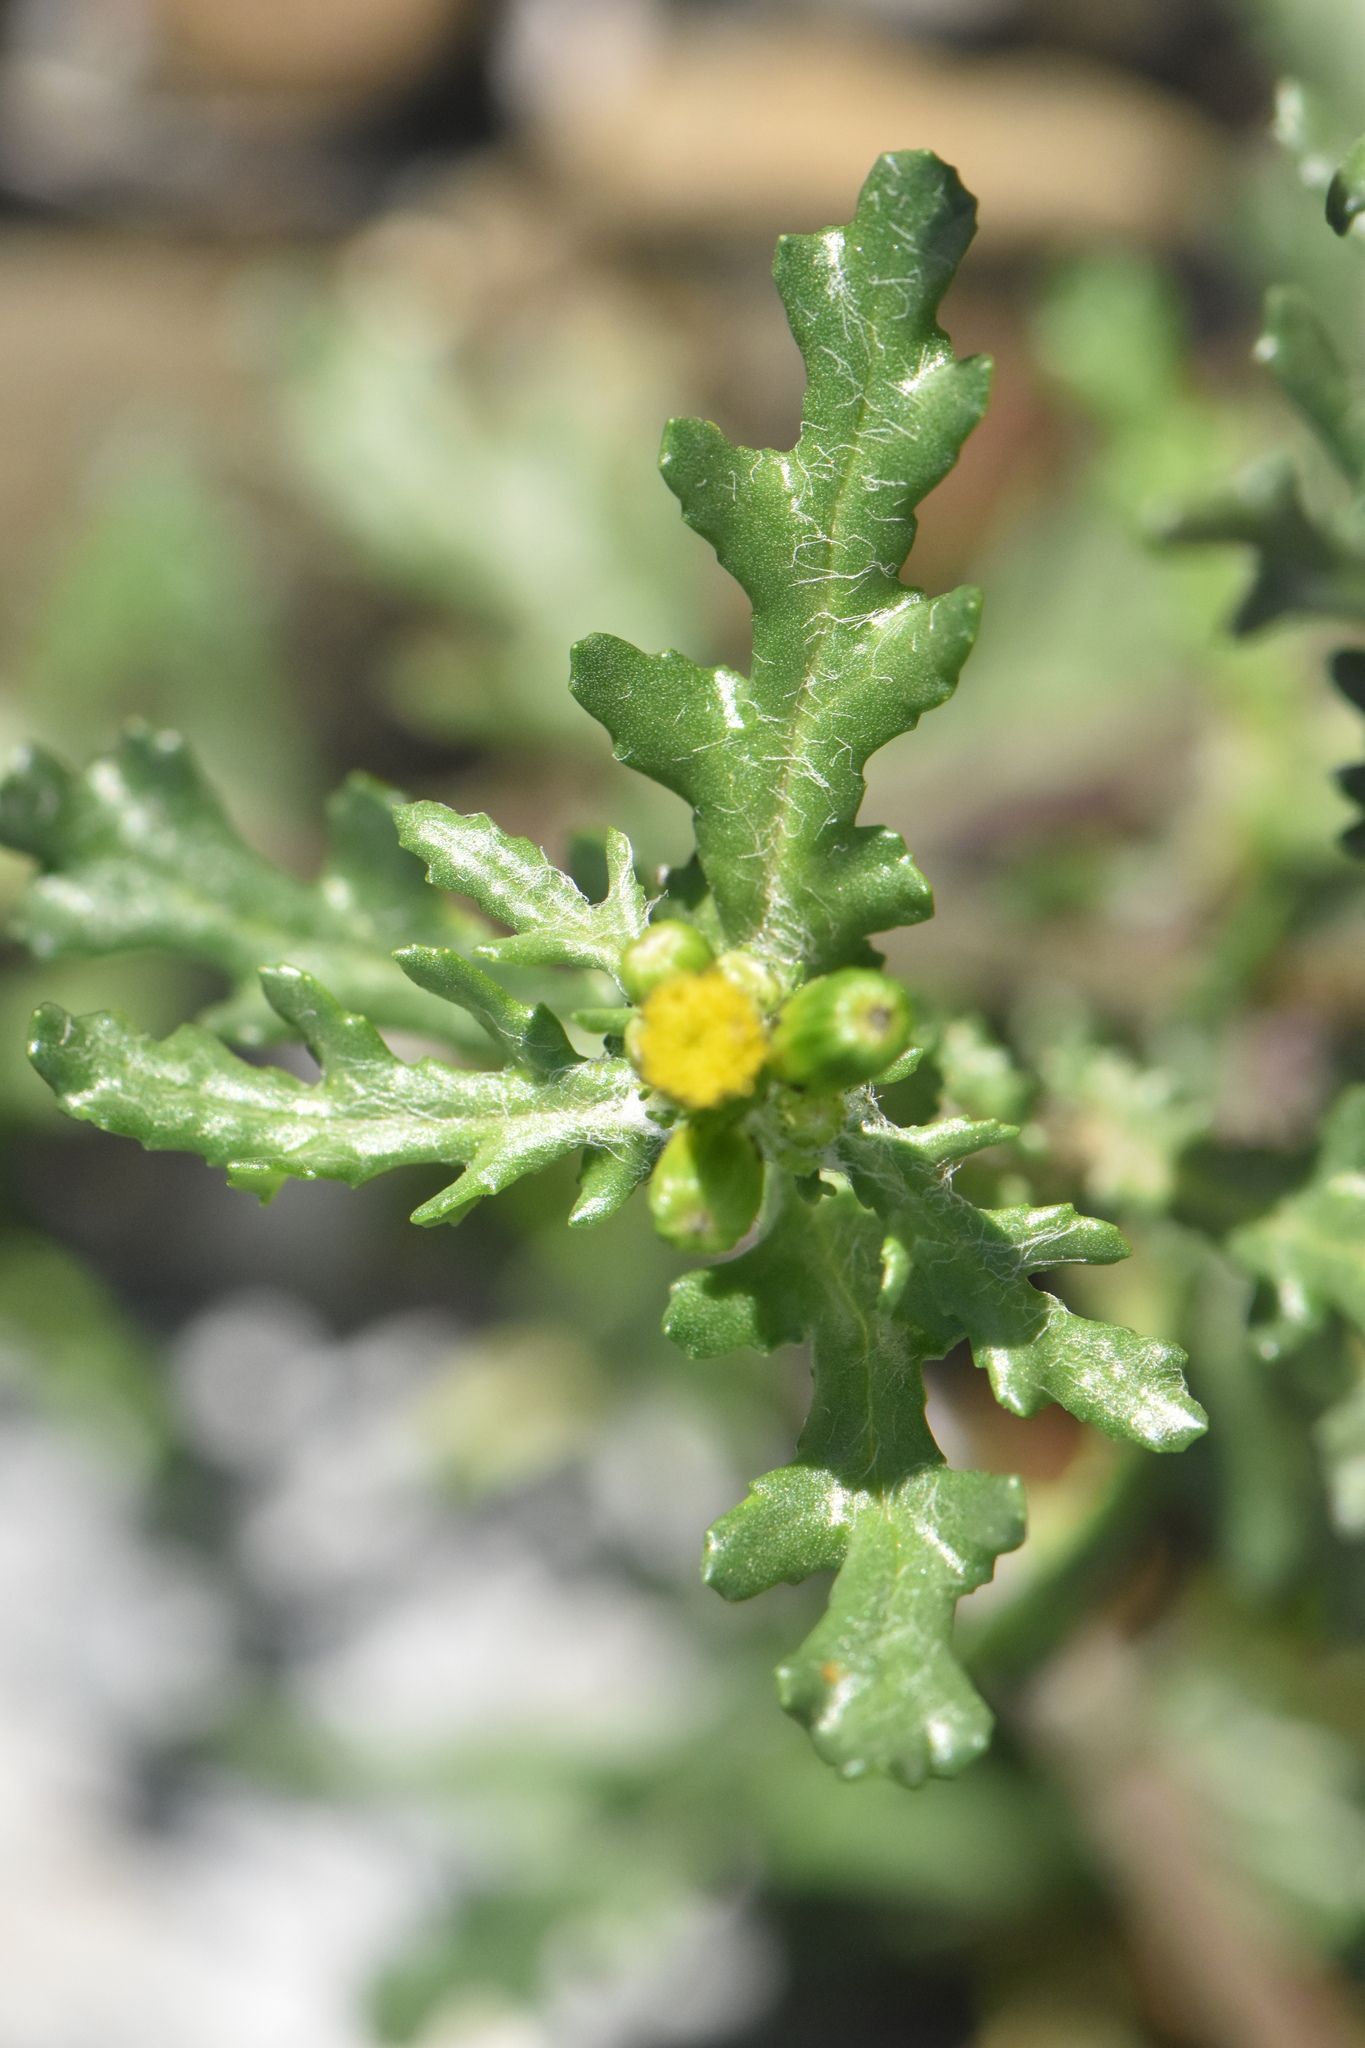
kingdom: Plantae
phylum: Tracheophyta
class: Magnoliopsida
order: Asterales
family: Asteraceae
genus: Senecio
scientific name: Senecio vulgaris
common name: Old-man-in-the-spring
